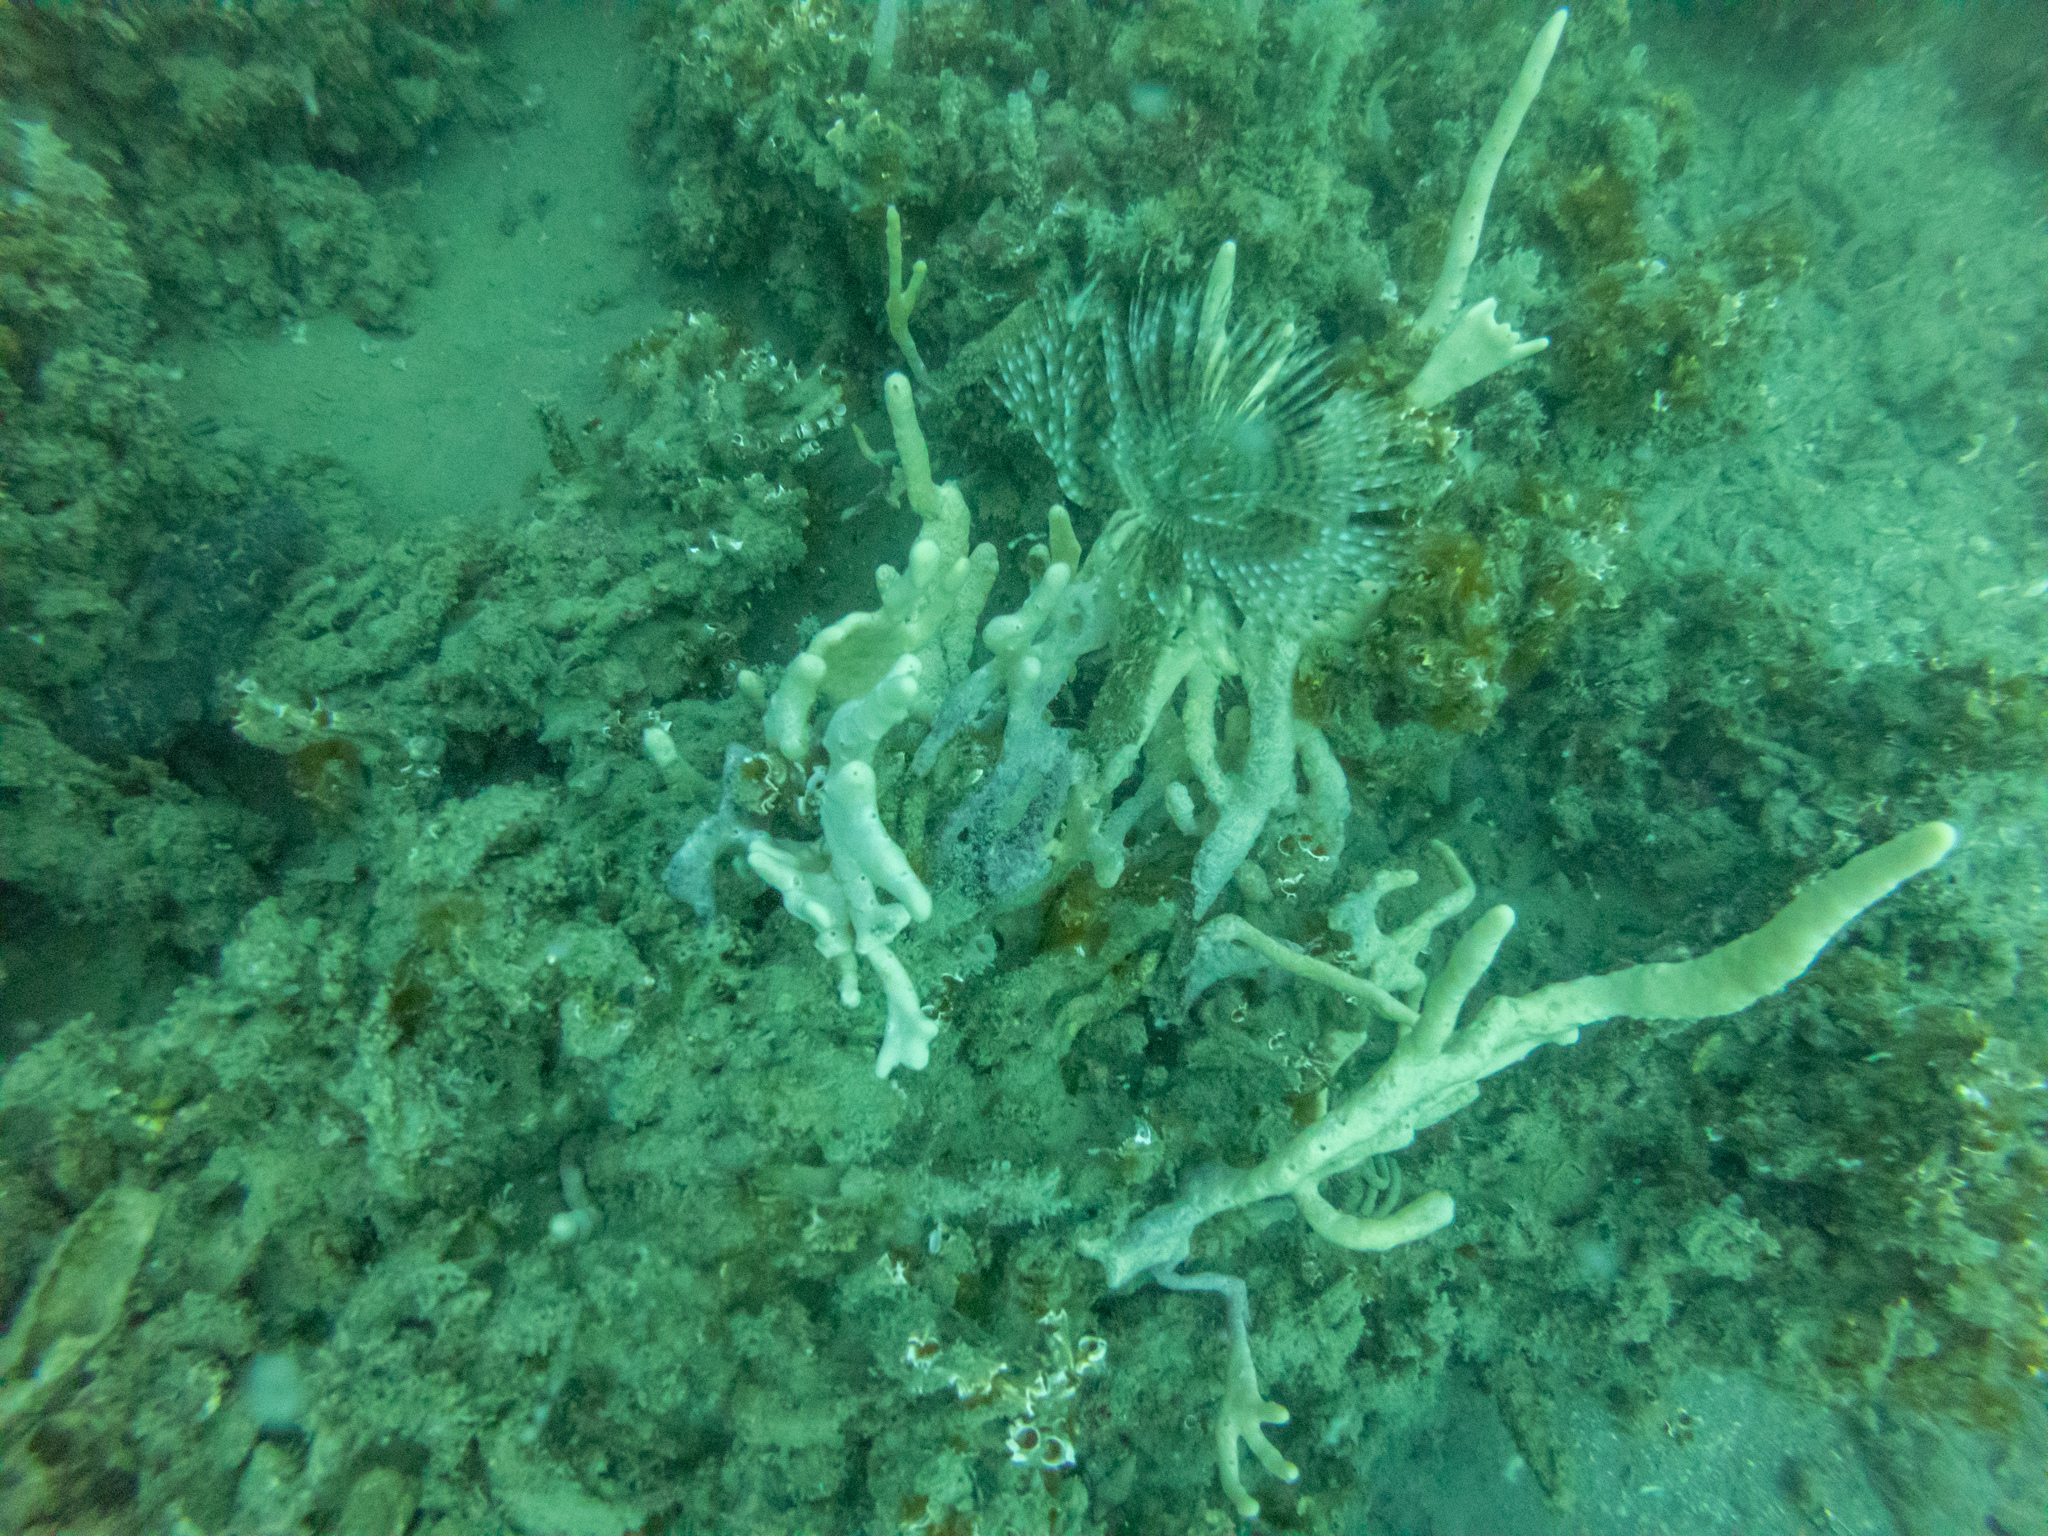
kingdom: Animalia
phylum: Annelida
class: Polychaeta
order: Sabellida
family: Sabellidae
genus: Sabella
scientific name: Sabella spallanzanii
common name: Feather duster worm
